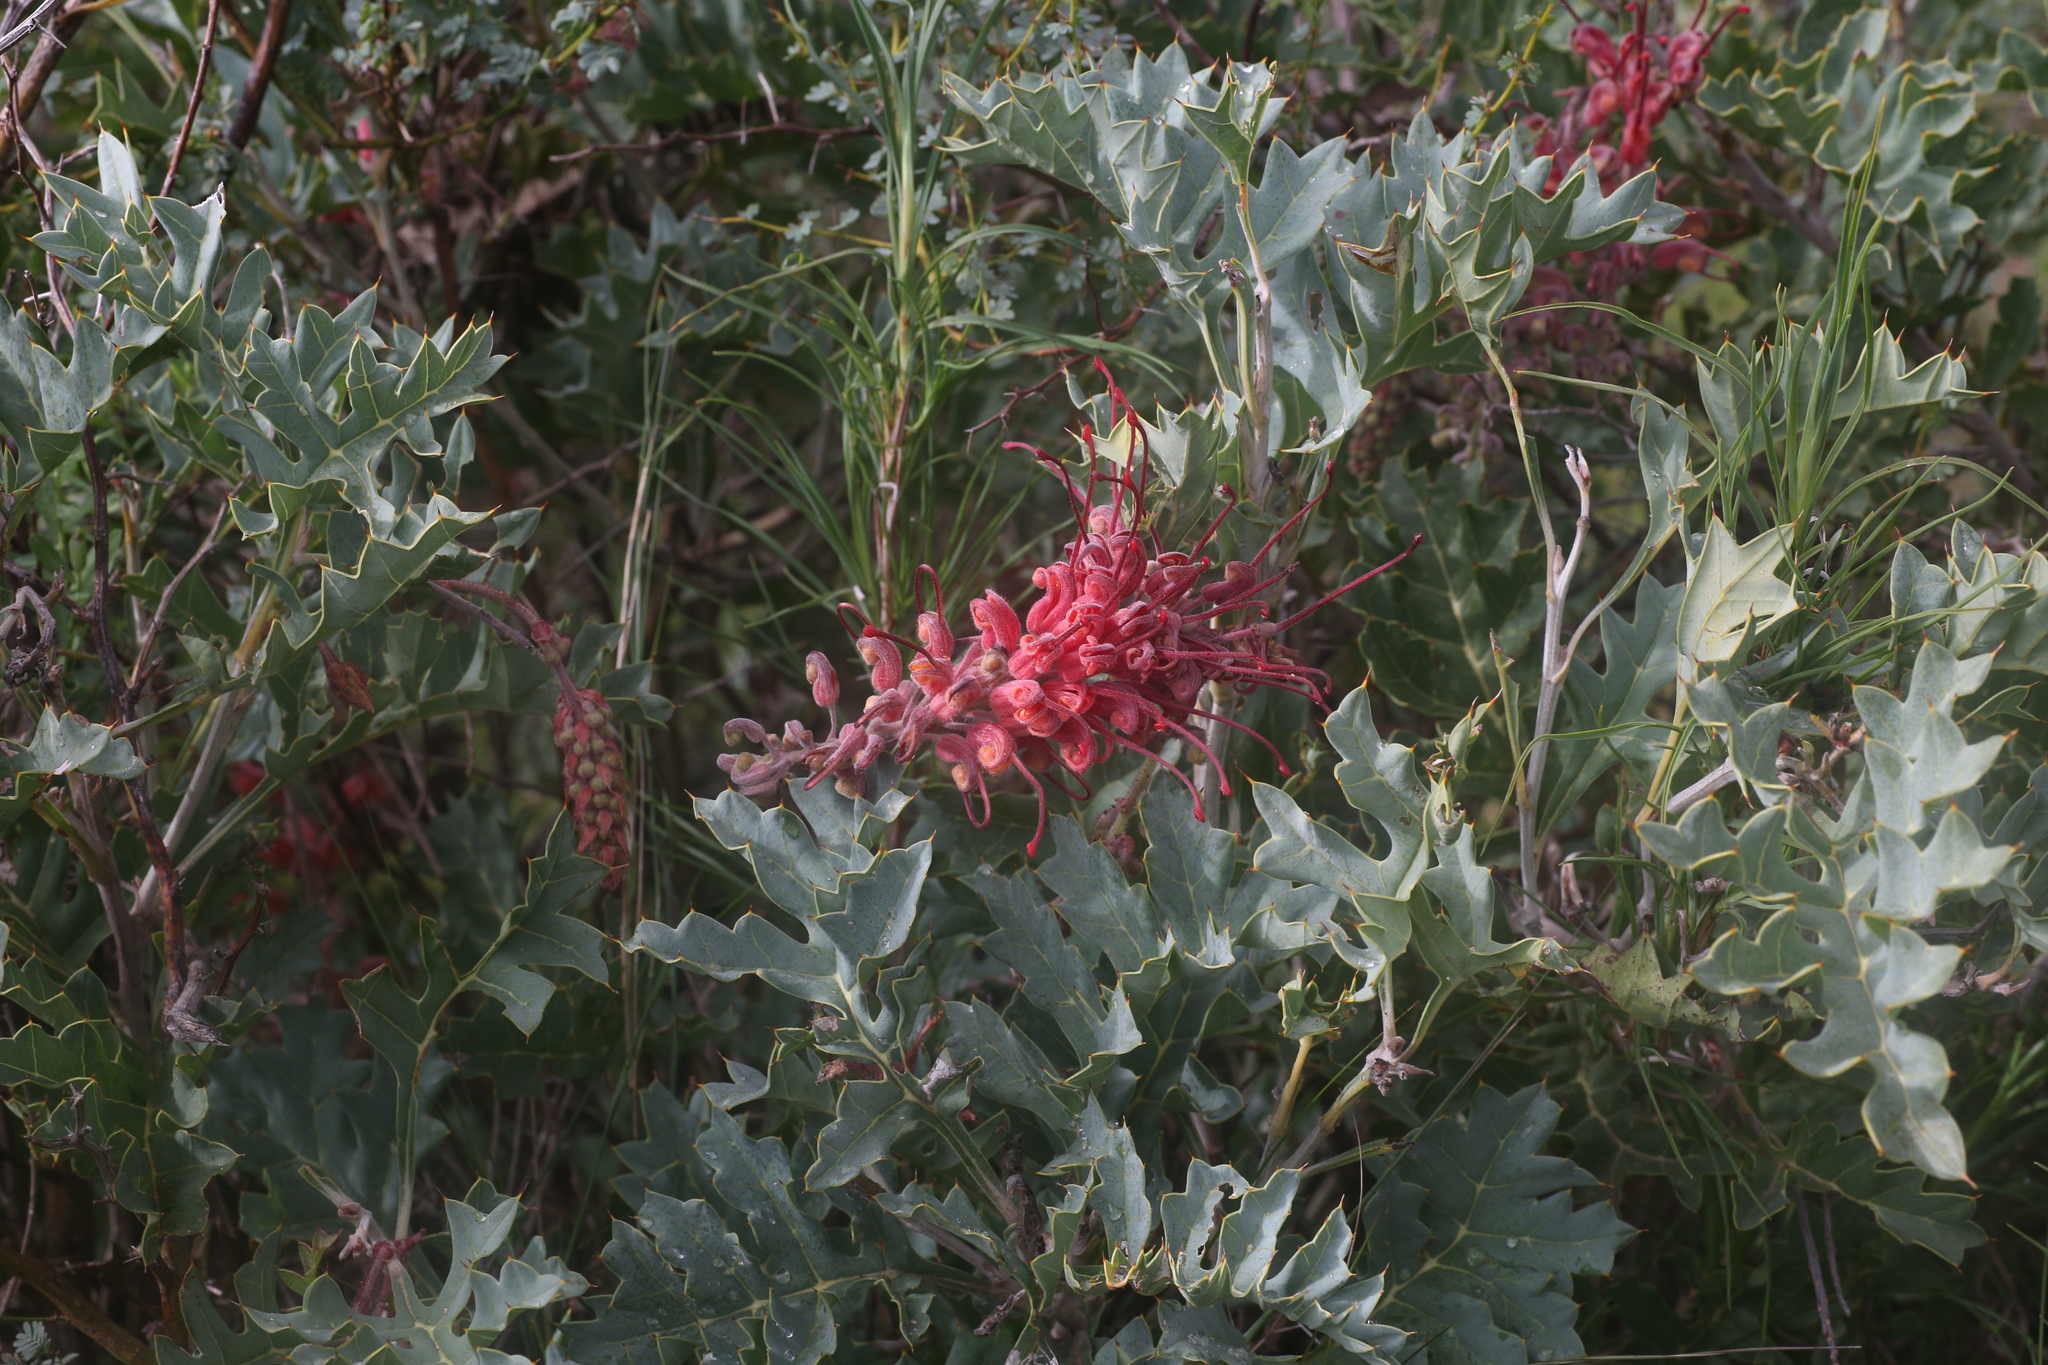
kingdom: Plantae
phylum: Tracheophyta
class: Magnoliopsida
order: Proteales
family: Proteaceae
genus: Grevillea
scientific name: Grevillea bipinnatifida
